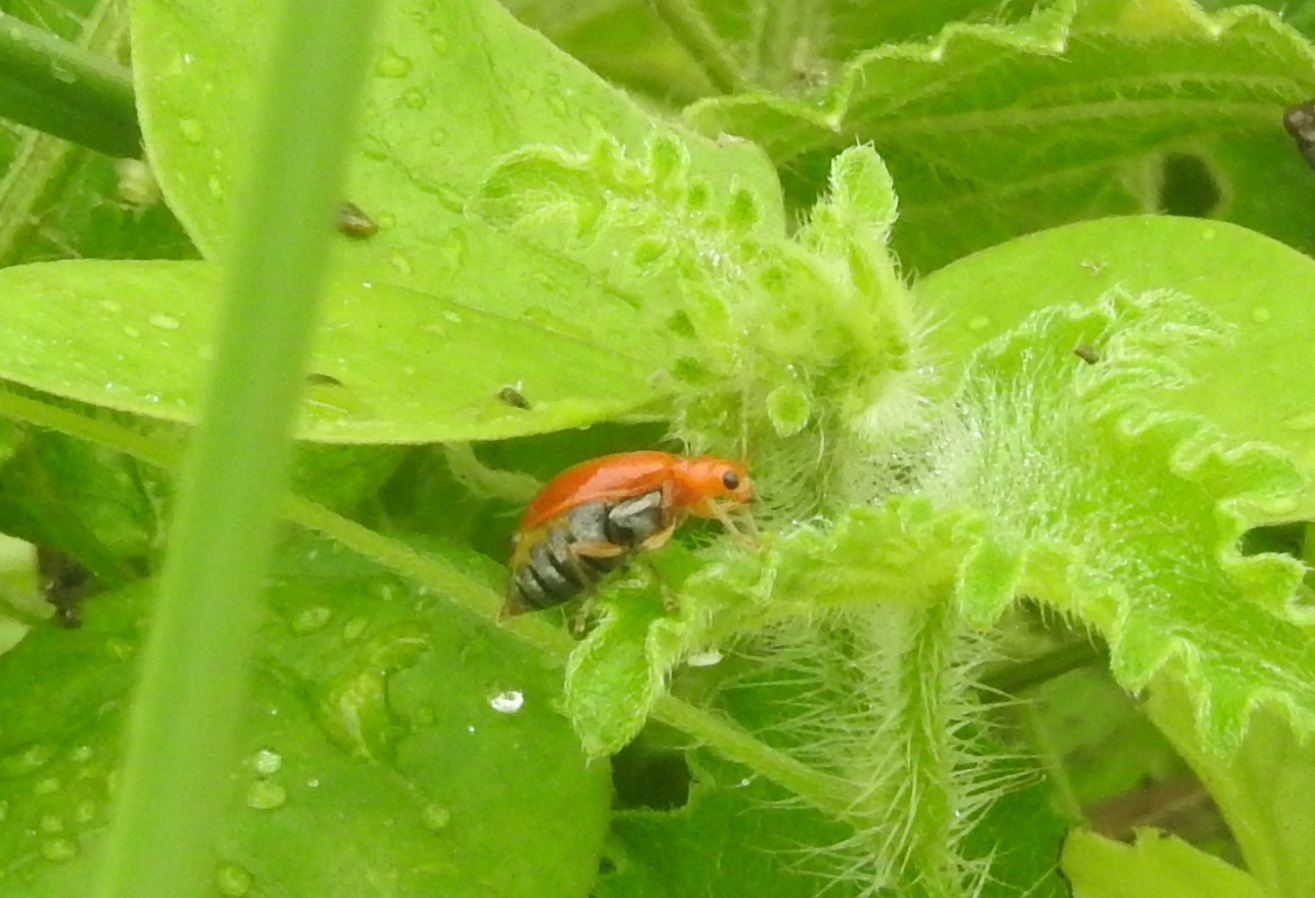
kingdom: Animalia
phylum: Arthropoda
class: Insecta
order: Coleoptera
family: Chrysomelidae
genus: Aulacophora
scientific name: Aulacophora indica
